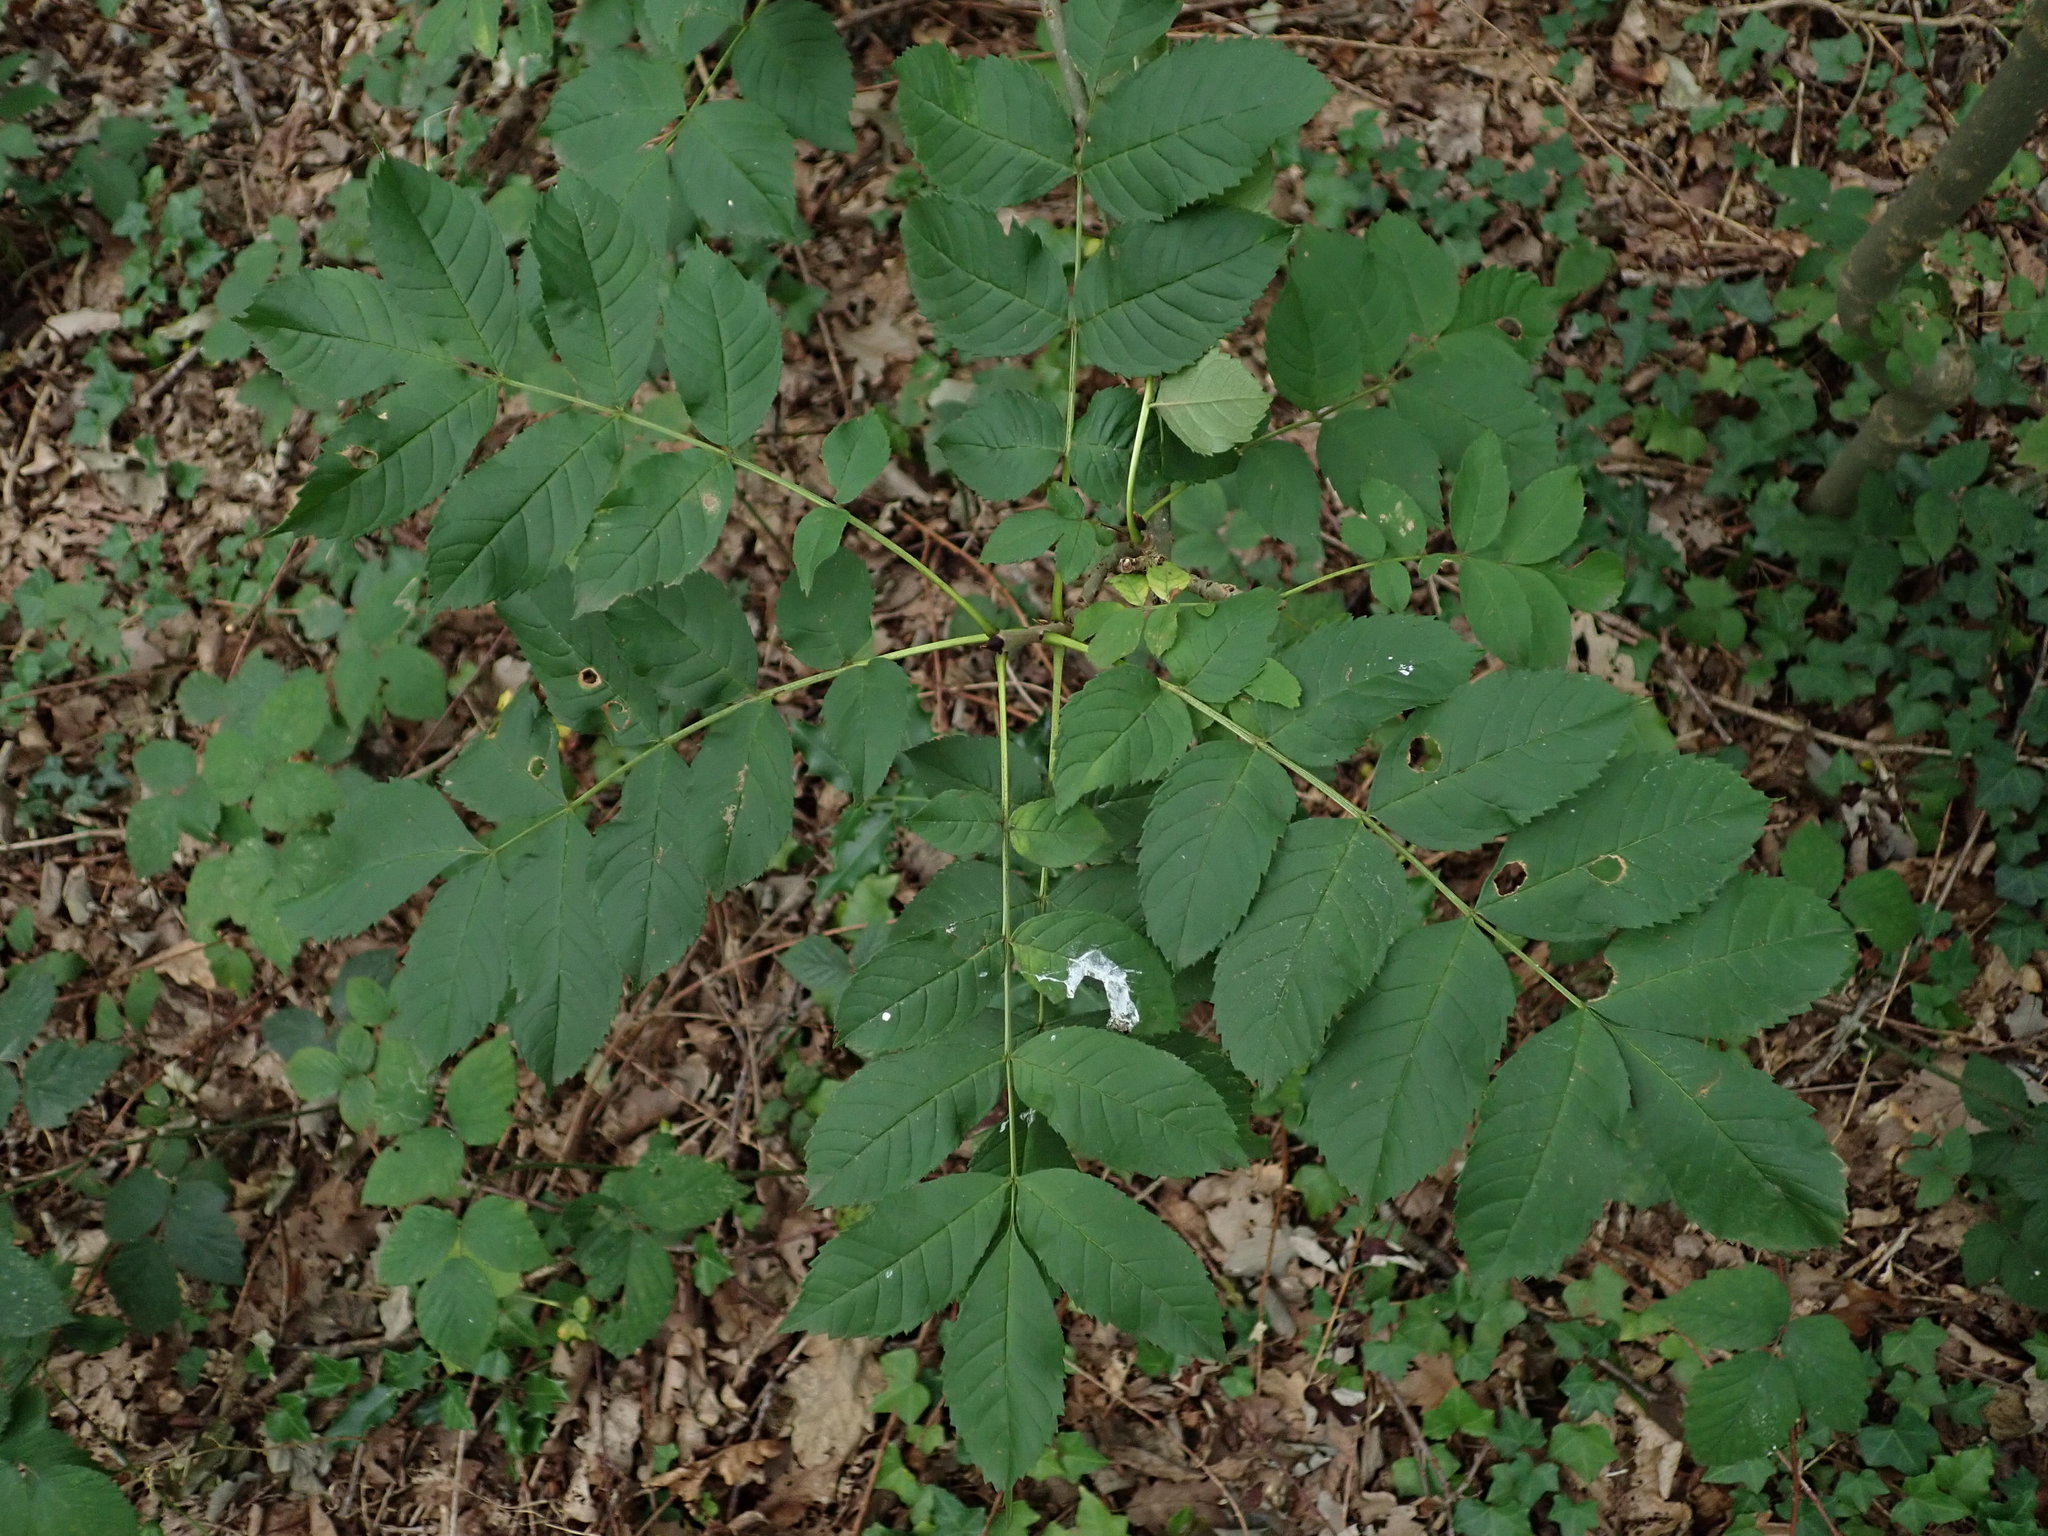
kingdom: Plantae
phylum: Tracheophyta
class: Magnoliopsida
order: Lamiales
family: Oleaceae
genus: Fraxinus
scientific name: Fraxinus excelsior
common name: European ash
